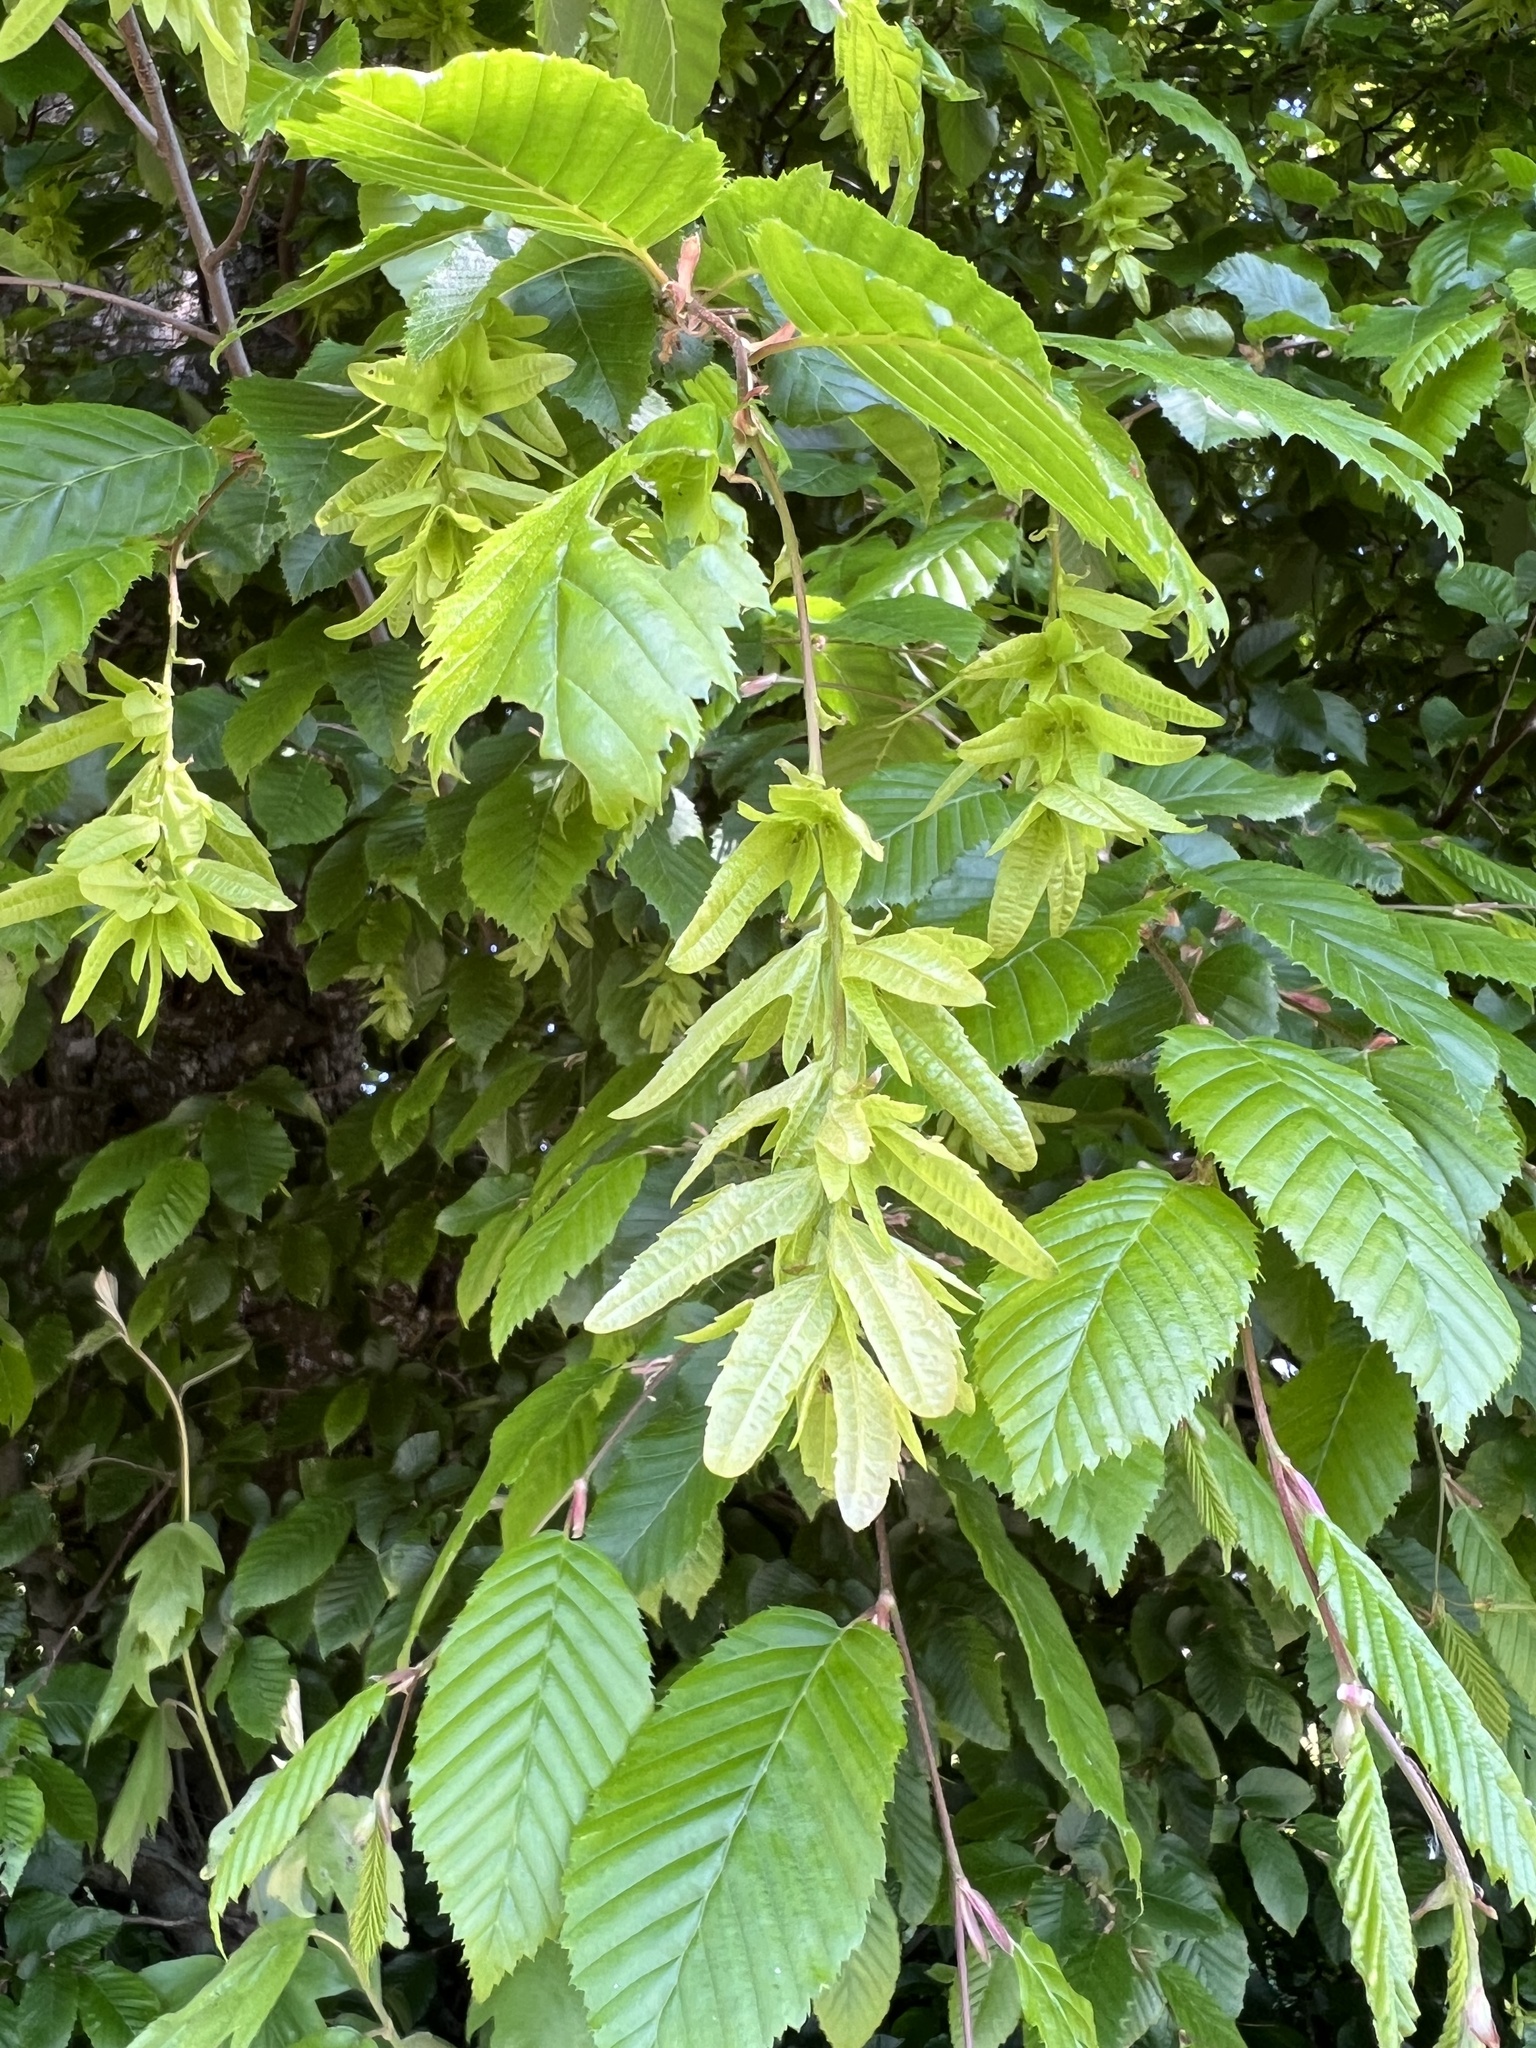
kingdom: Plantae
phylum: Tracheophyta
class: Magnoliopsida
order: Fagales
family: Betulaceae
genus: Carpinus
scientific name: Carpinus betulus
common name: Hornbeam
